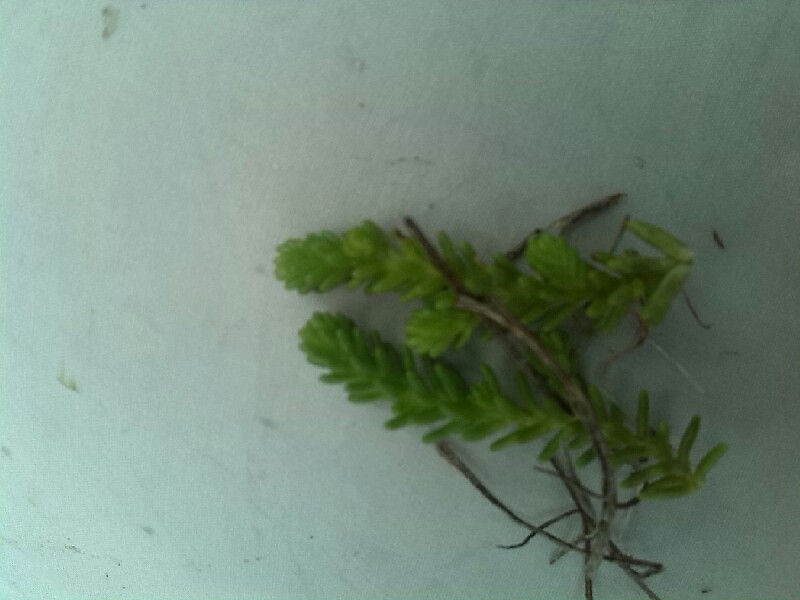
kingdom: Plantae
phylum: Tracheophyta
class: Magnoliopsida
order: Saxifragales
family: Crassulaceae
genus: Sedum
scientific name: Sedum sexangulare
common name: Tasteless stonecrop
